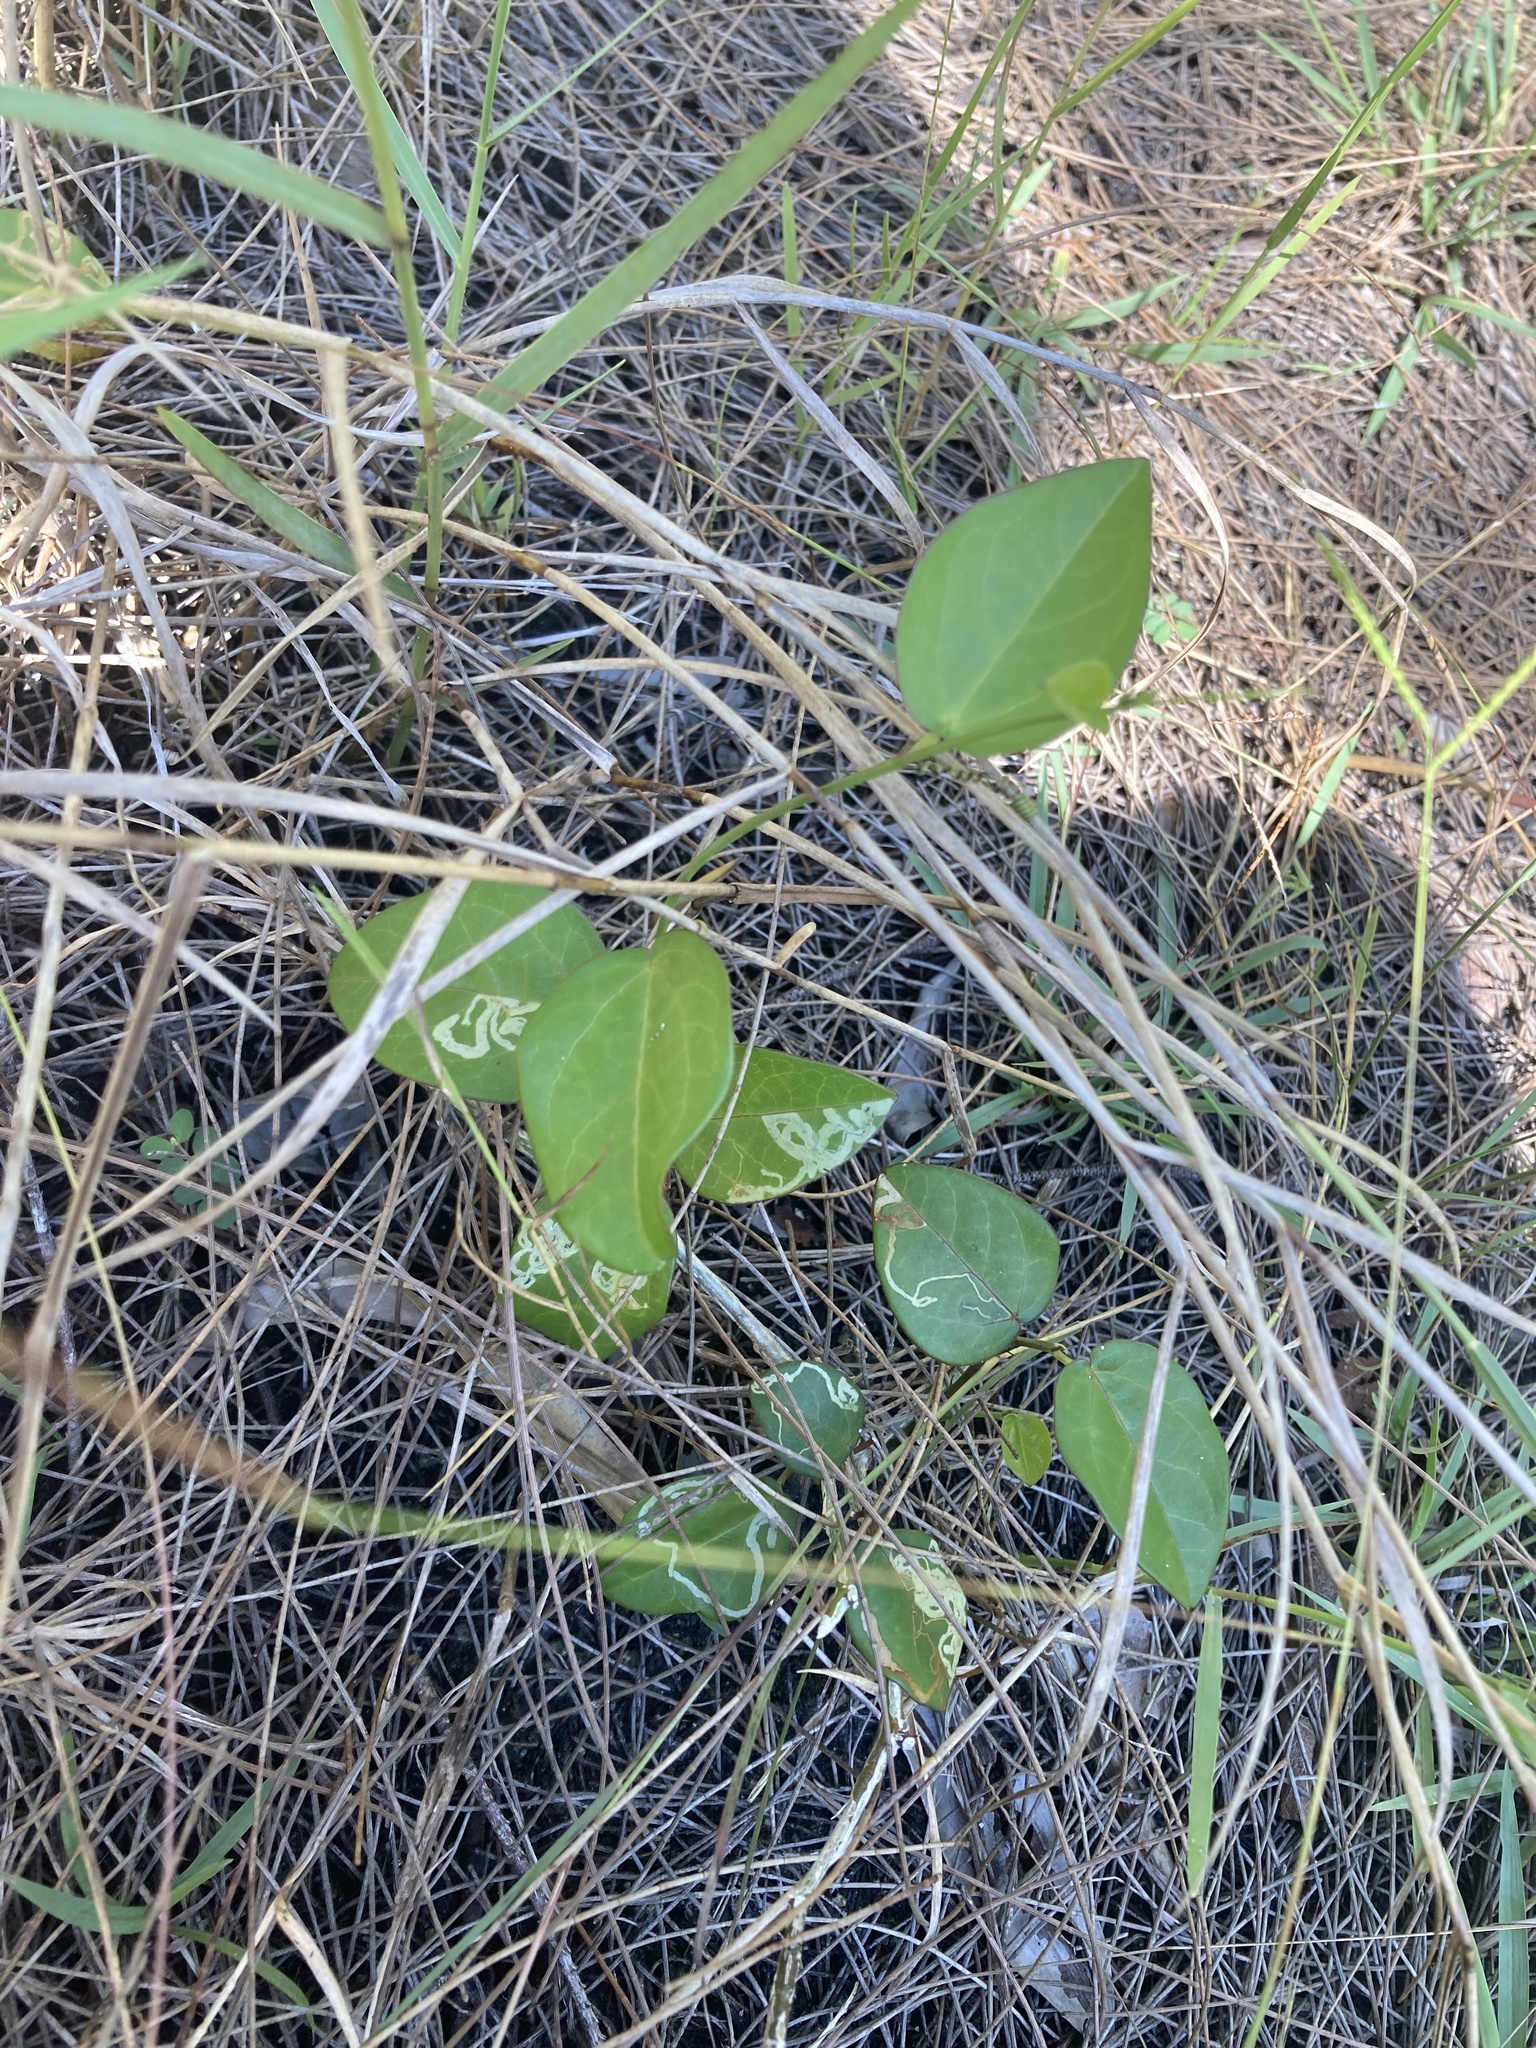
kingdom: Plantae
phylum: Tracheophyta
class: Magnoliopsida
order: Malpighiales
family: Passifloraceae
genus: Passiflora
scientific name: Passiflora pallida
